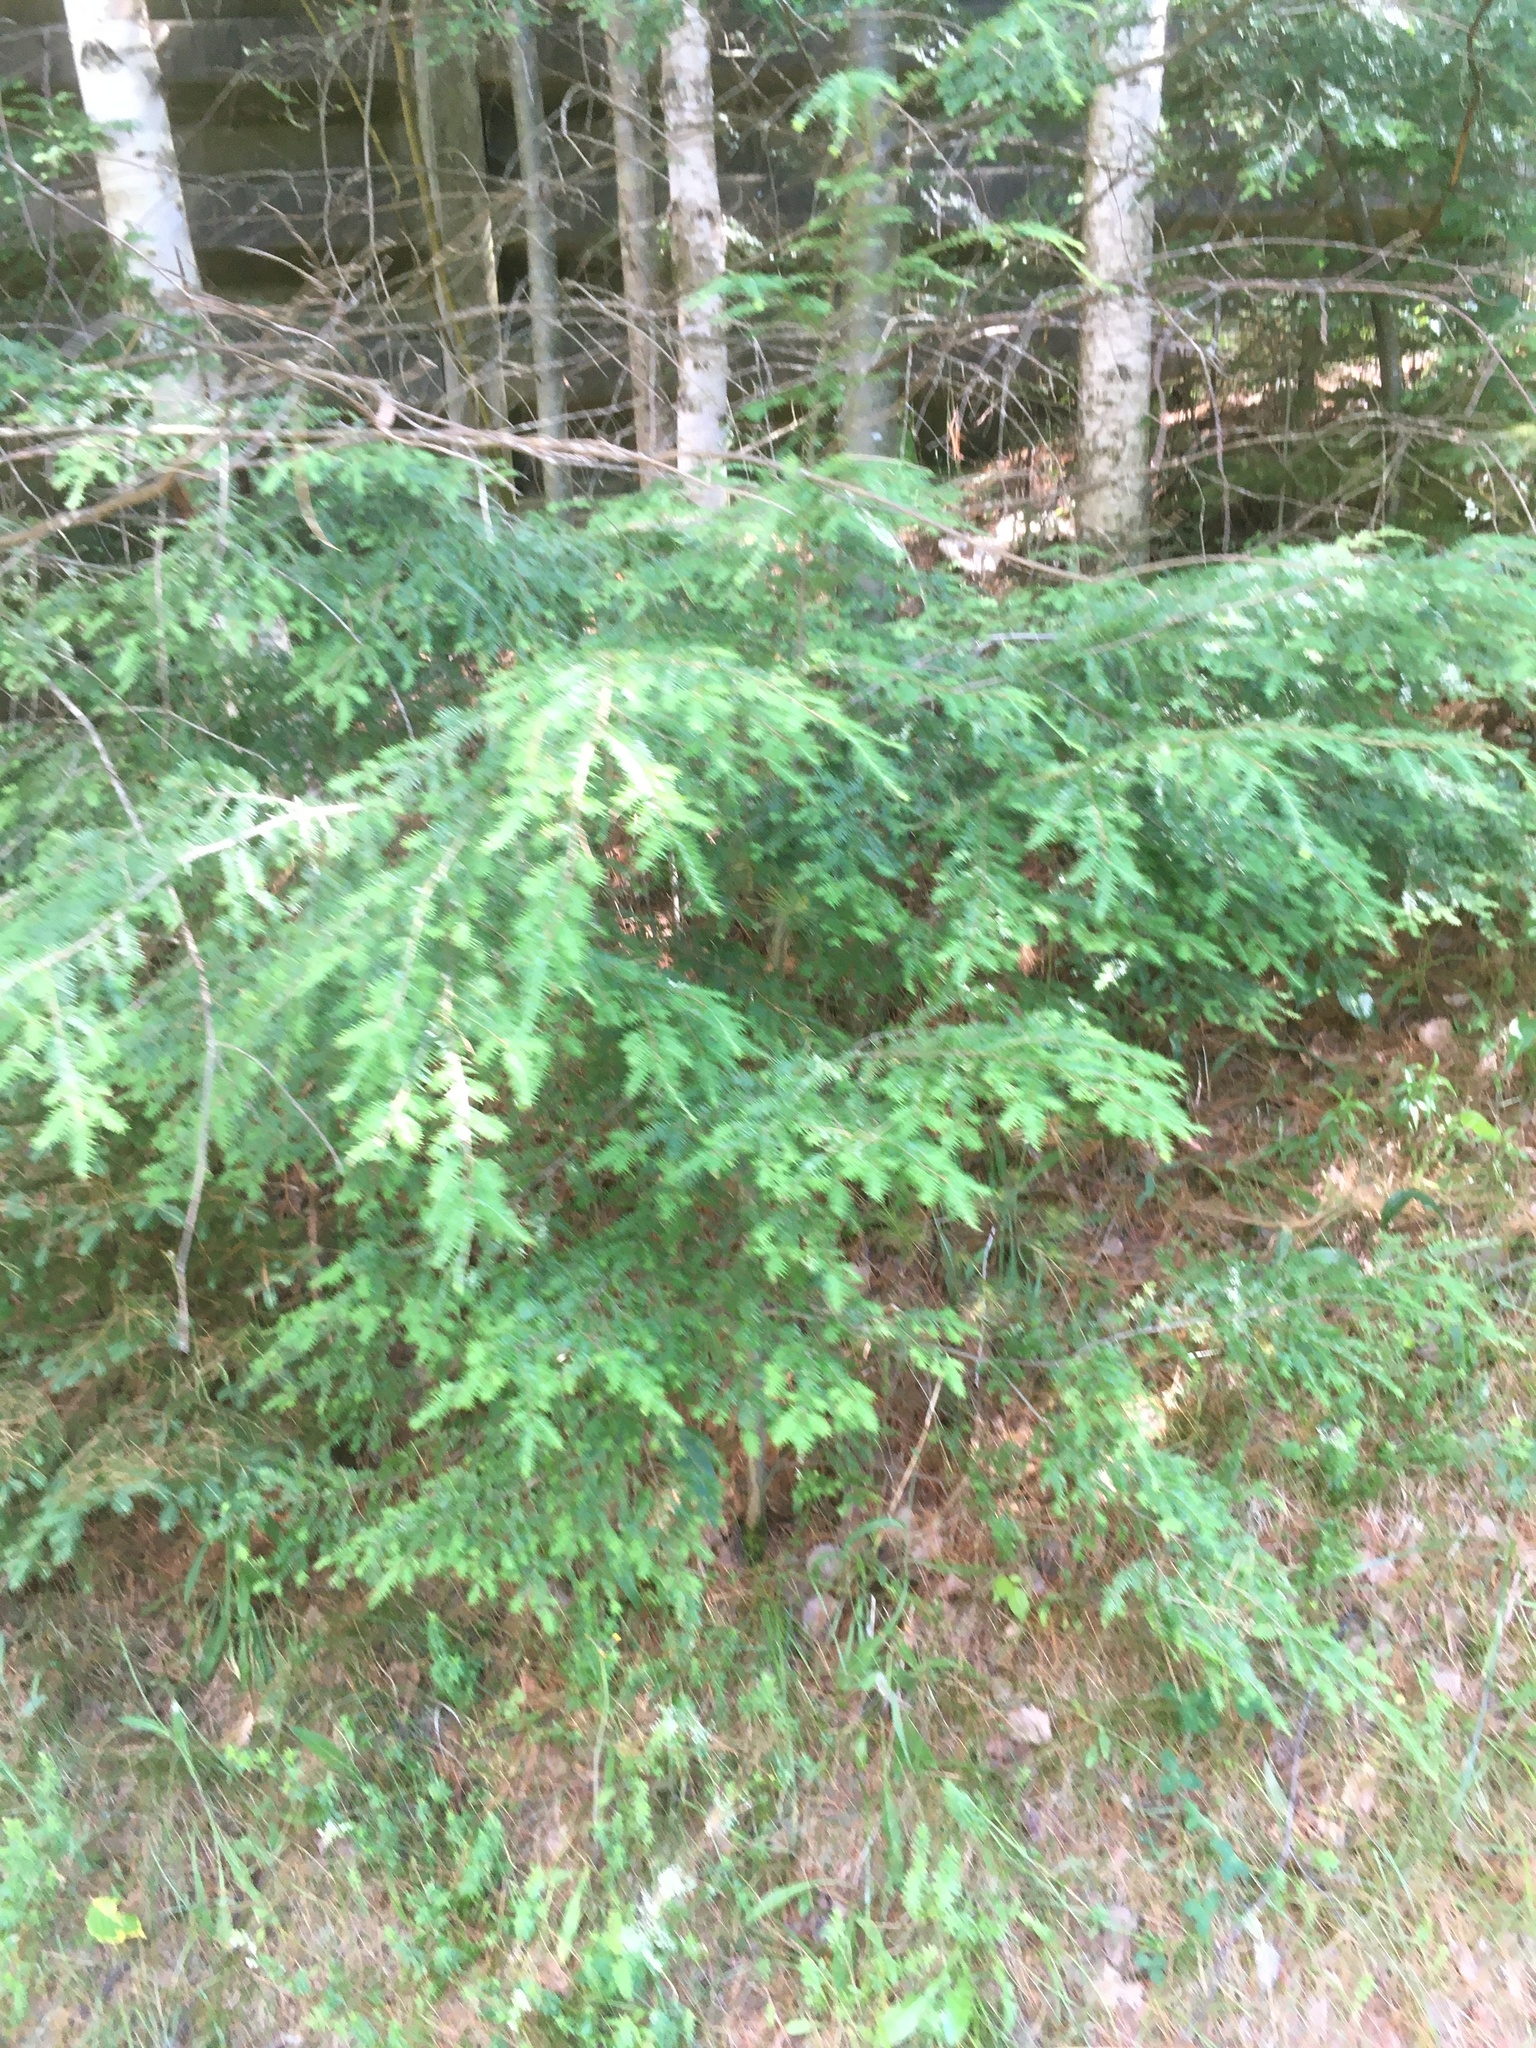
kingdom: Plantae
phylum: Tracheophyta
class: Pinopsida
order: Pinales
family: Pinaceae
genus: Tsuga
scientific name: Tsuga canadensis
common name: Eastern hemlock
